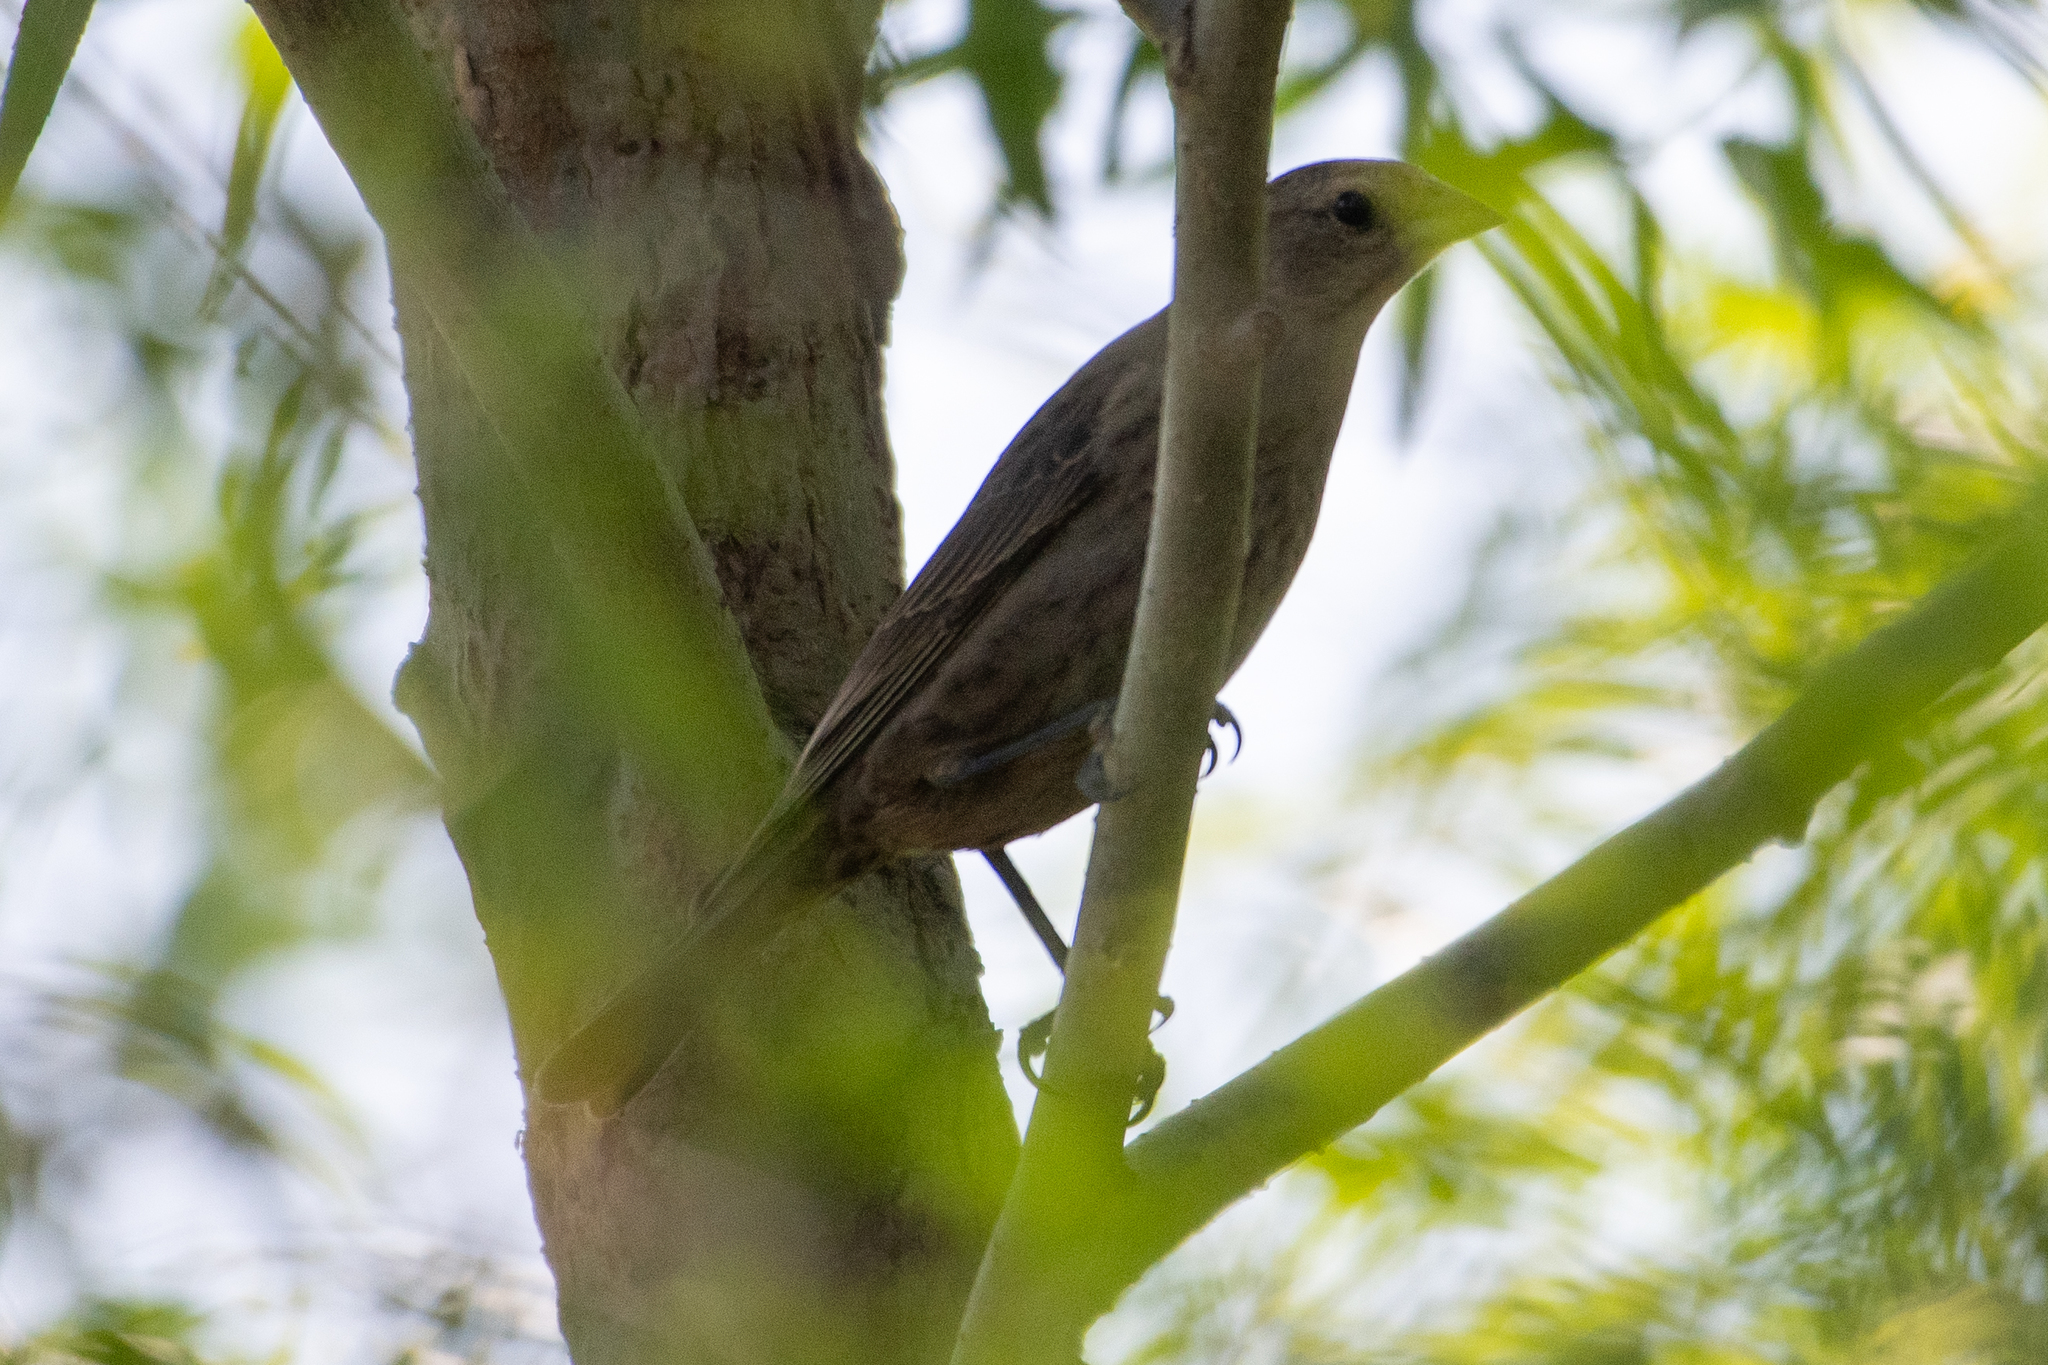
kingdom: Animalia
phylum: Chordata
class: Aves
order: Passeriformes
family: Icteridae
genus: Molothrus
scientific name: Molothrus ater
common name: Brown-headed cowbird
